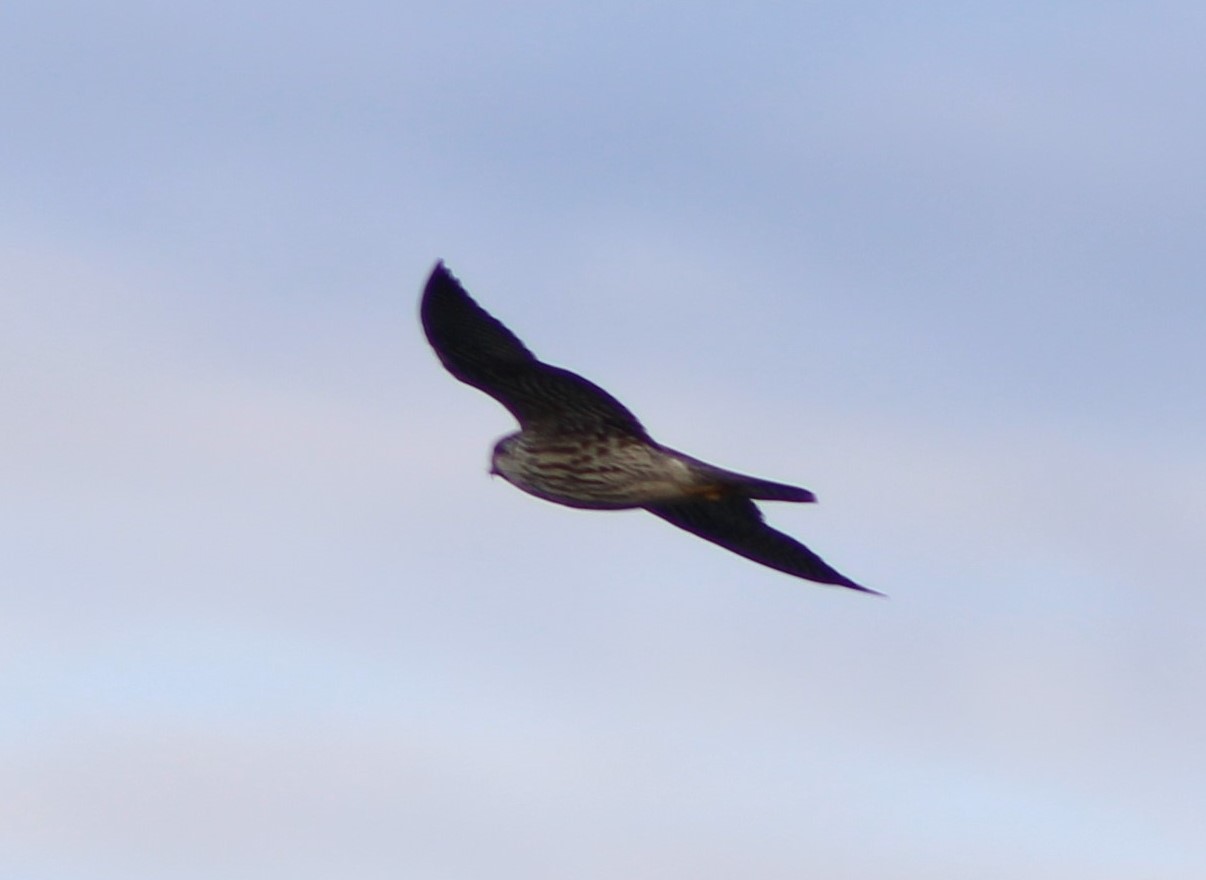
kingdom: Animalia
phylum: Chordata
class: Aves
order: Falconiformes
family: Falconidae
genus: Falco
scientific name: Falco columbarius
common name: Merlin
